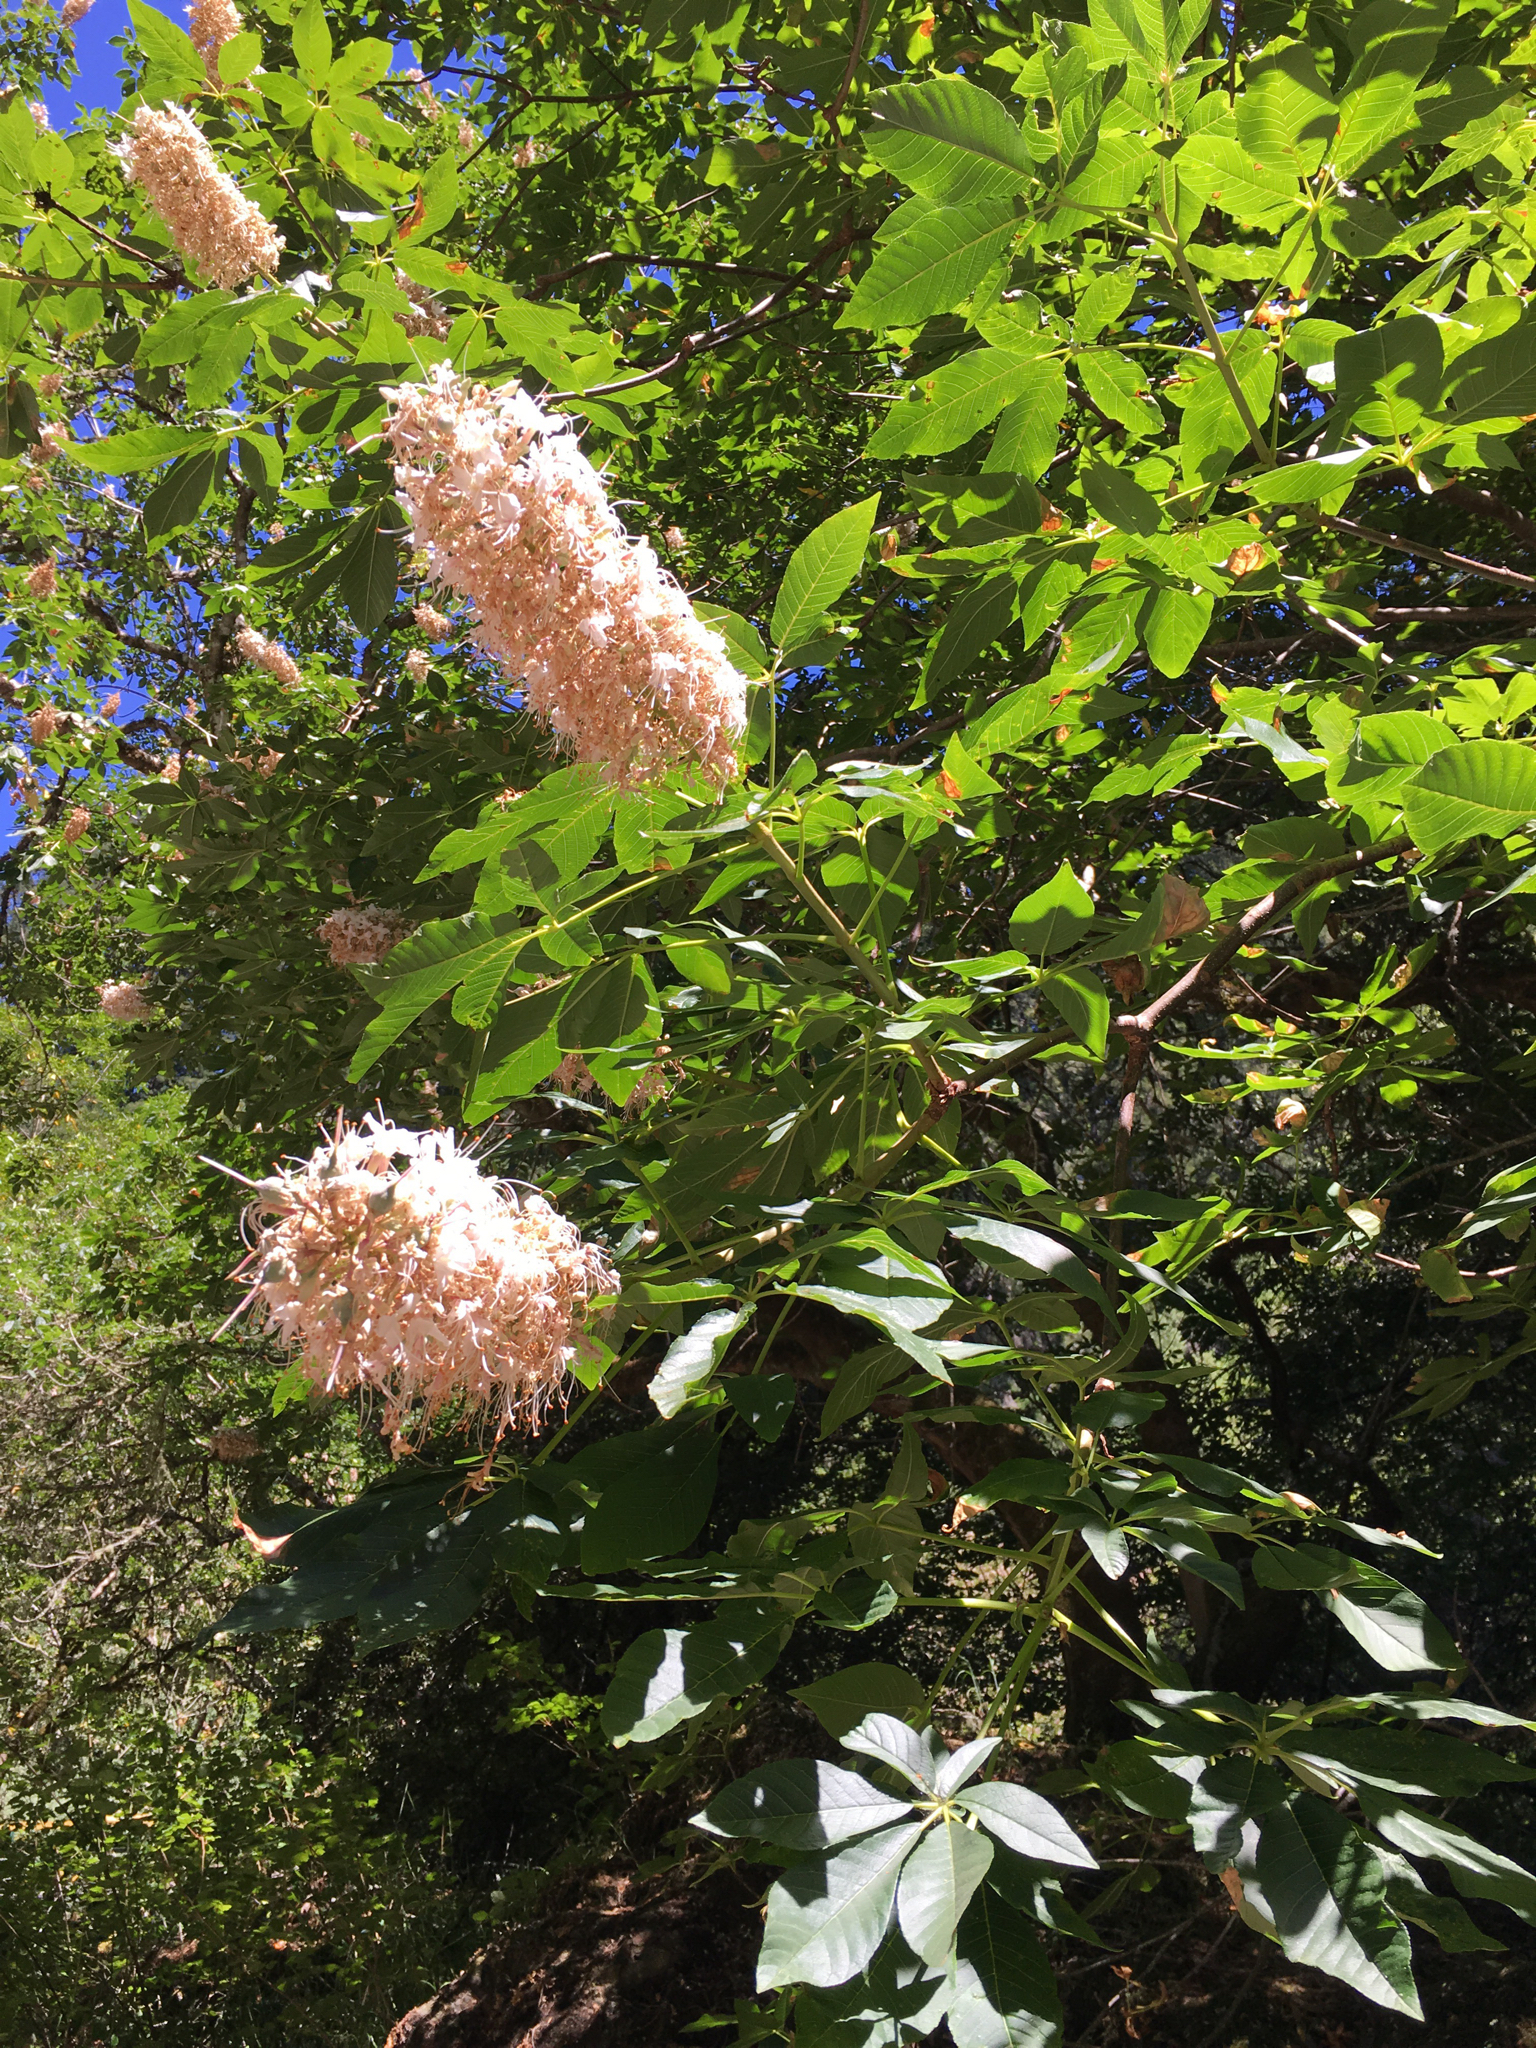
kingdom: Plantae
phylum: Tracheophyta
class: Magnoliopsida
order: Sapindales
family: Sapindaceae
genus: Aesculus
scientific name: Aesculus californica
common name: California buckeye
